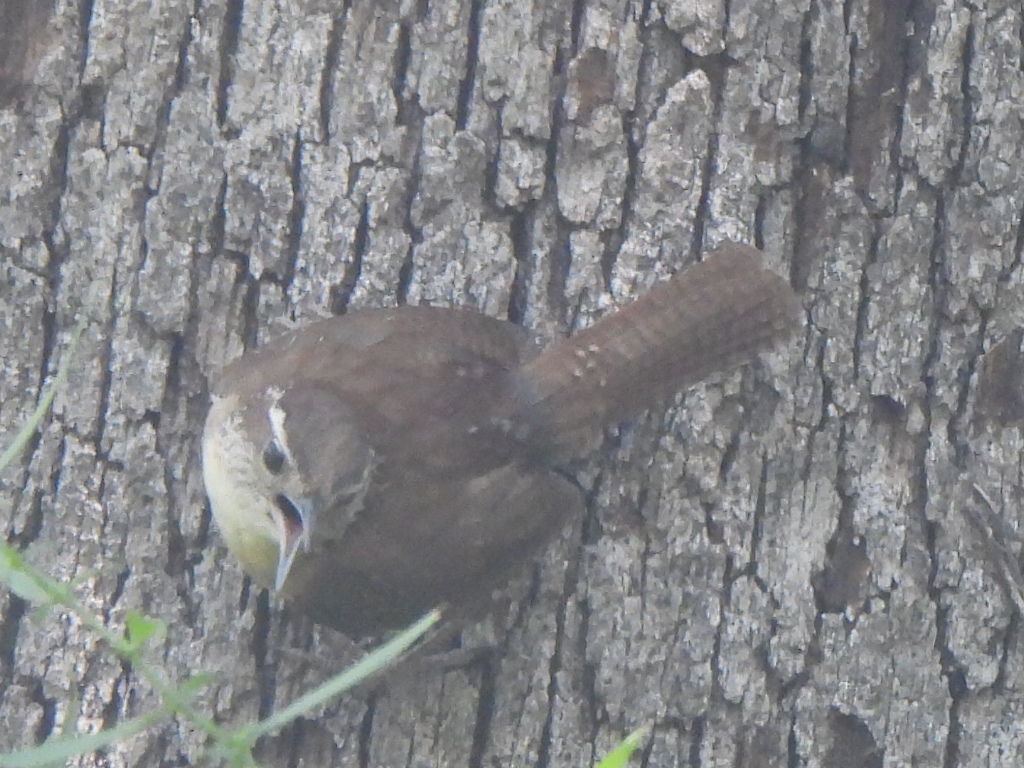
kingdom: Animalia
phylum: Chordata
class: Aves
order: Passeriformes
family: Troglodytidae
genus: Thryothorus
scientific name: Thryothorus ludovicianus
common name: Carolina wren
